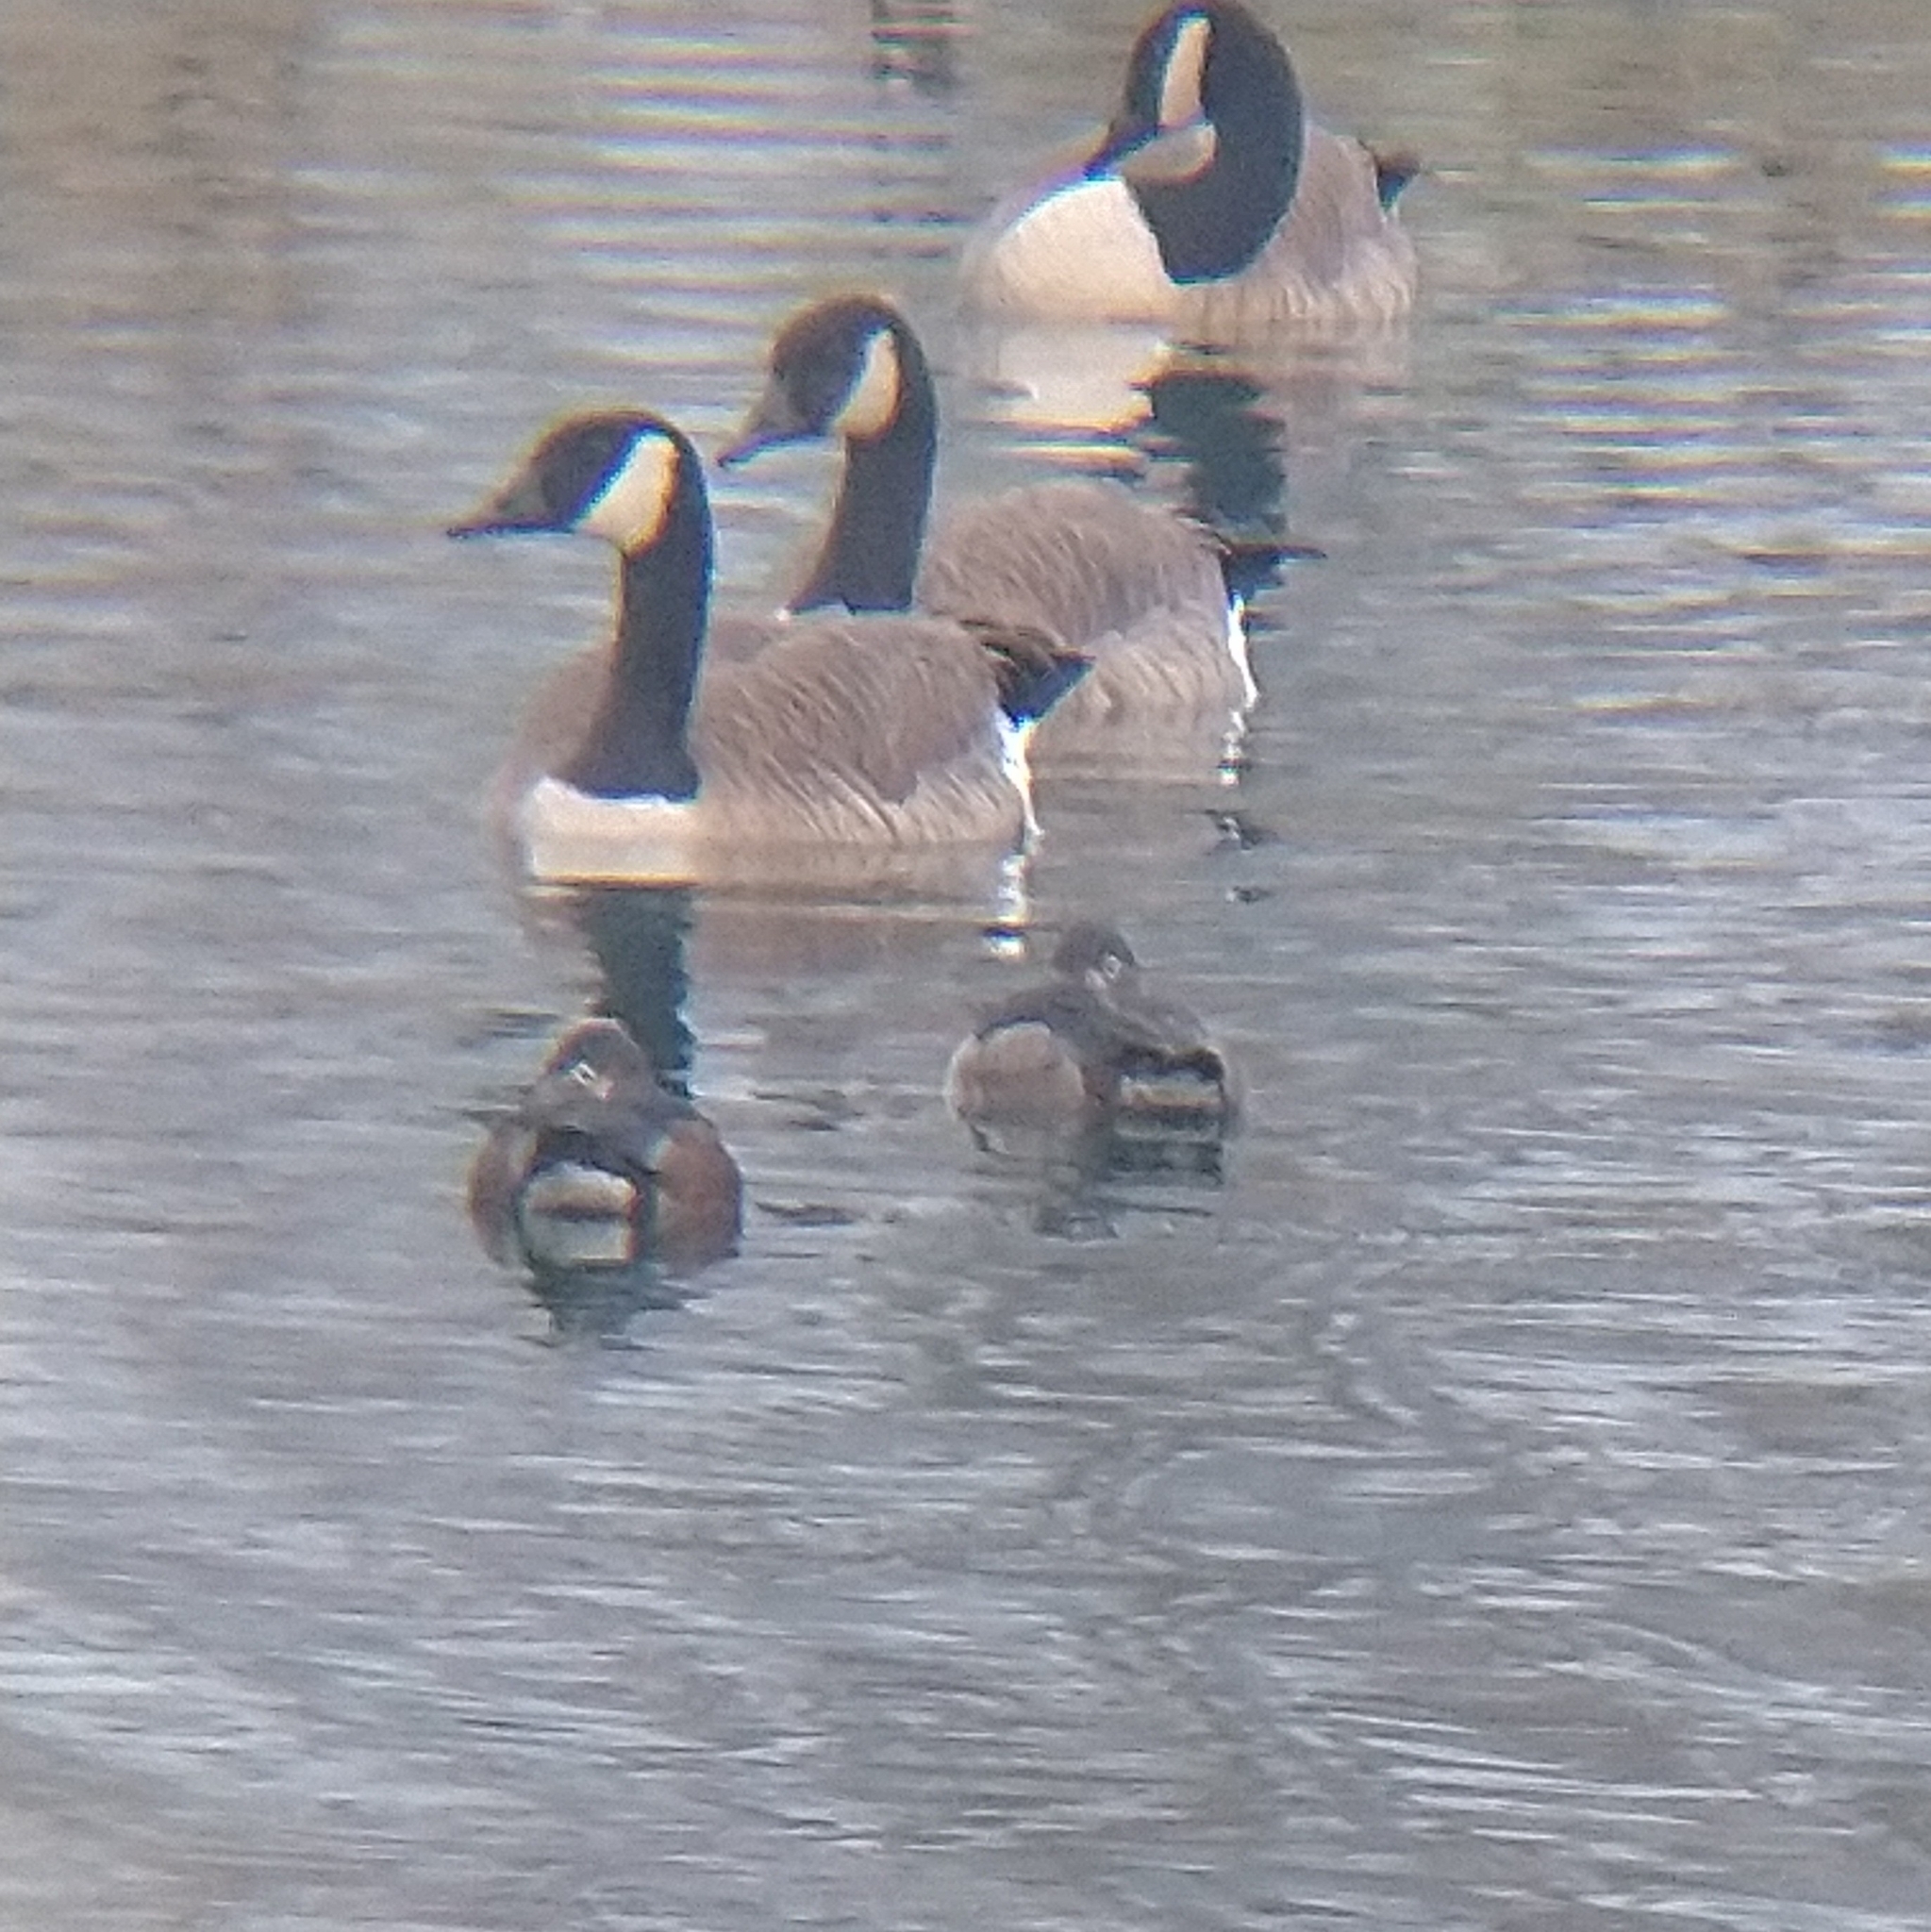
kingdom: Animalia
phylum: Chordata
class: Aves
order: Anseriformes
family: Anatidae
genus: Aythya
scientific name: Aythya collaris
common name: Ring-necked duck
